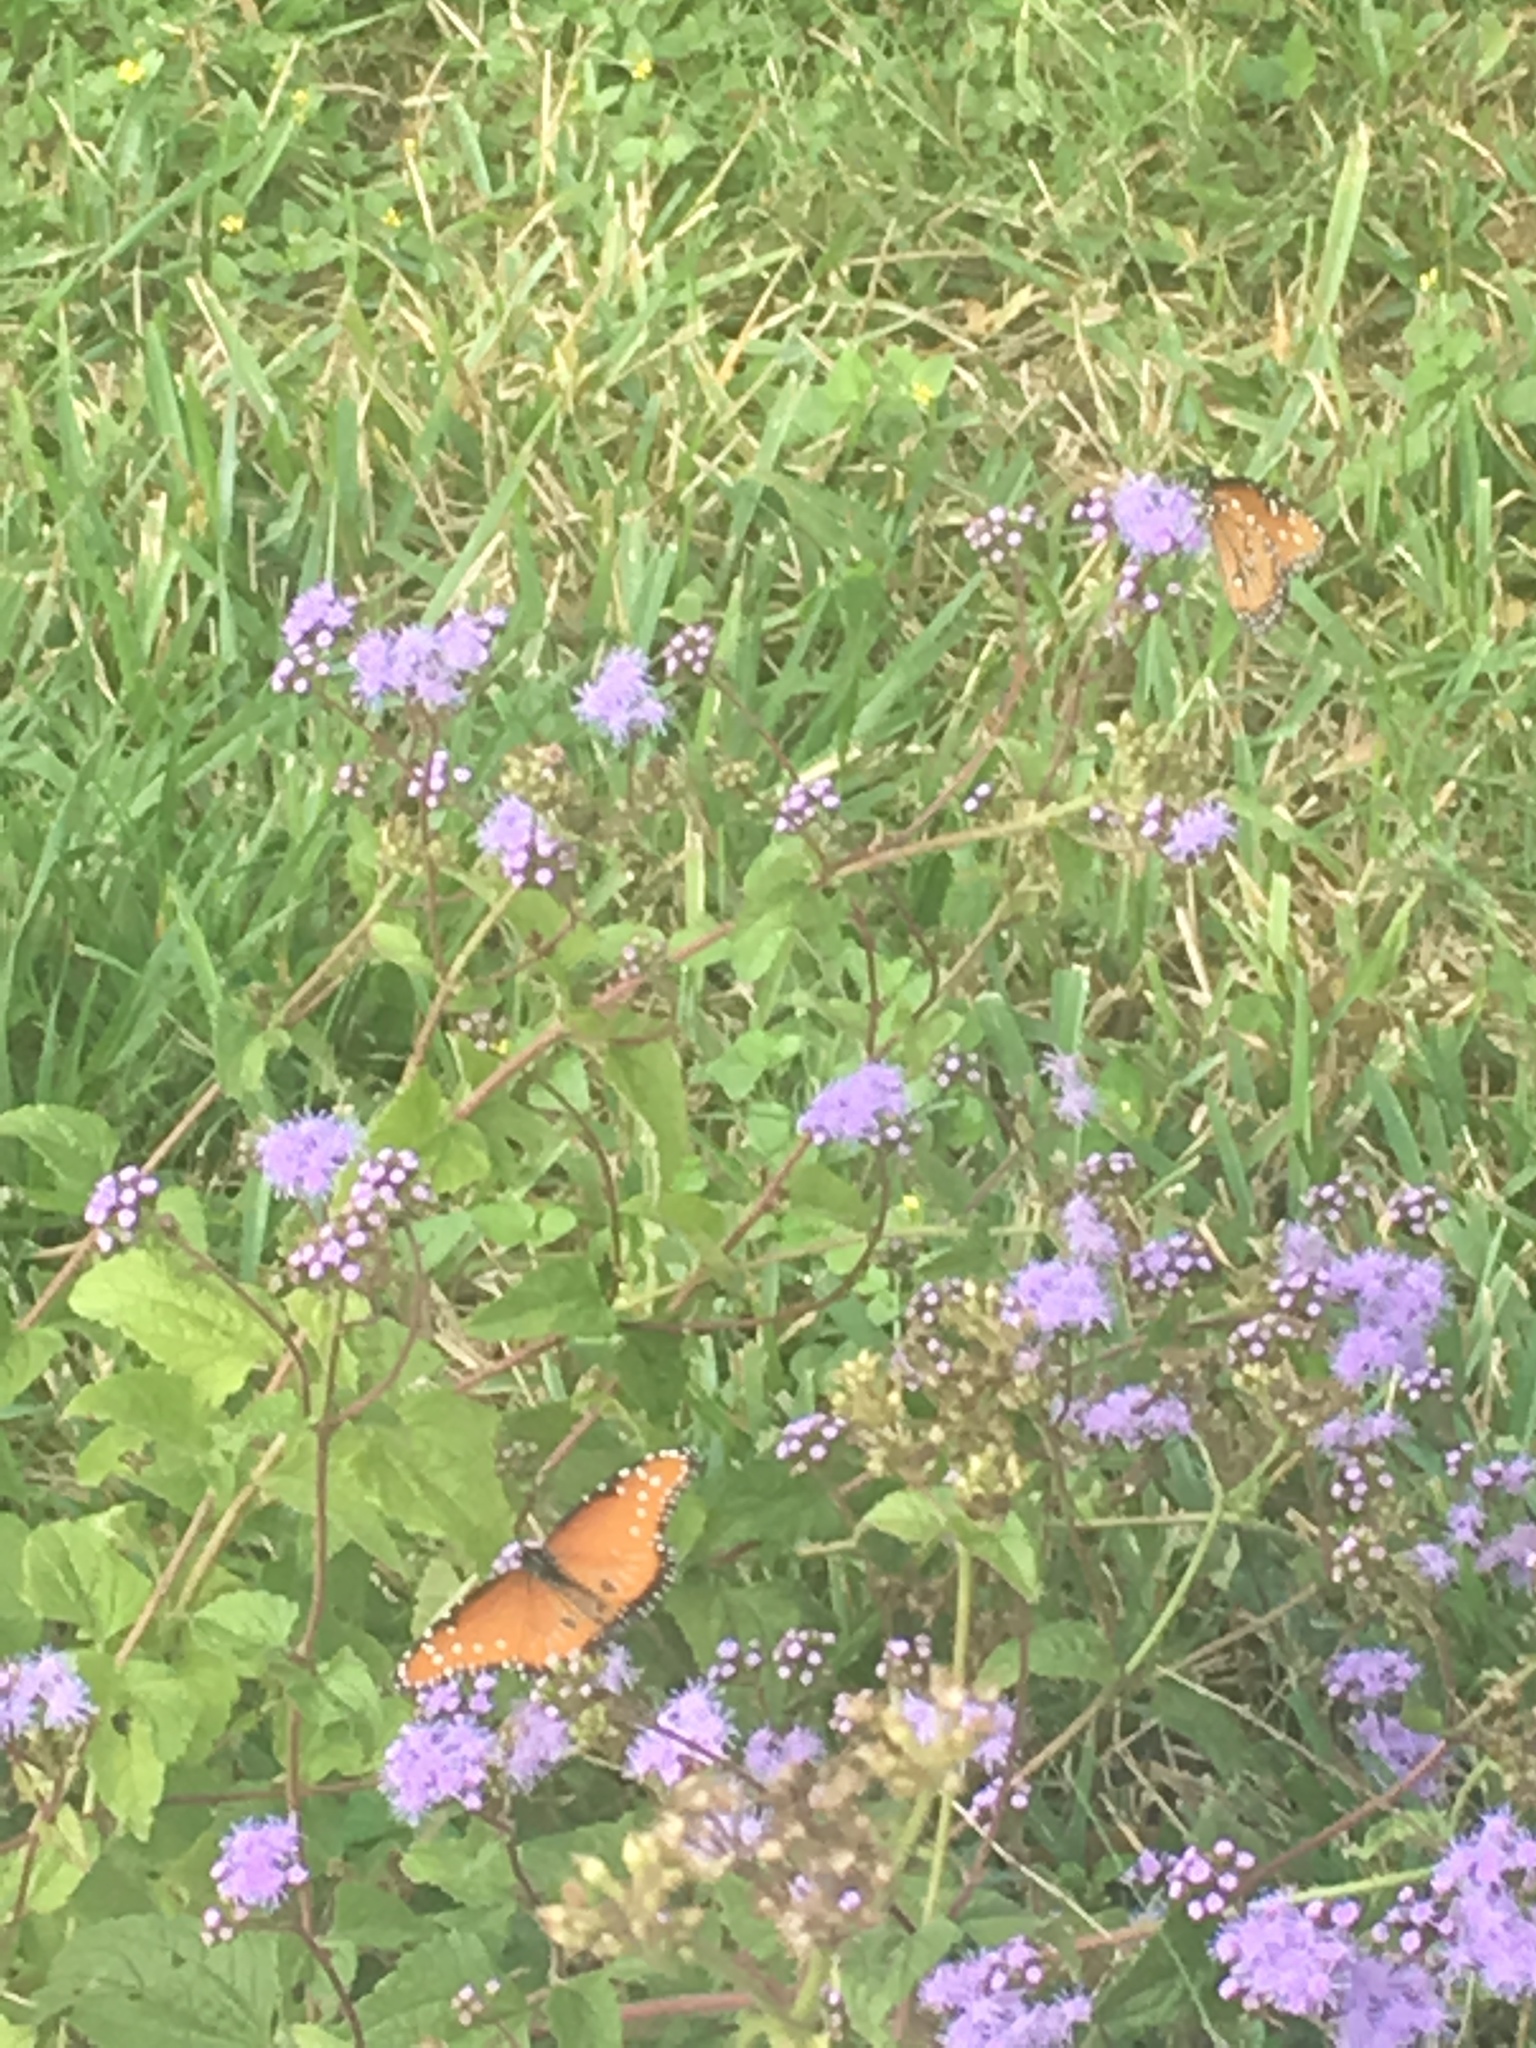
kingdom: Animalia
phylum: Arthropoda
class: Insecta
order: Lepidoptera
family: Nymphalidae
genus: Danaus
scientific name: Danaus gilippus
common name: Queen
